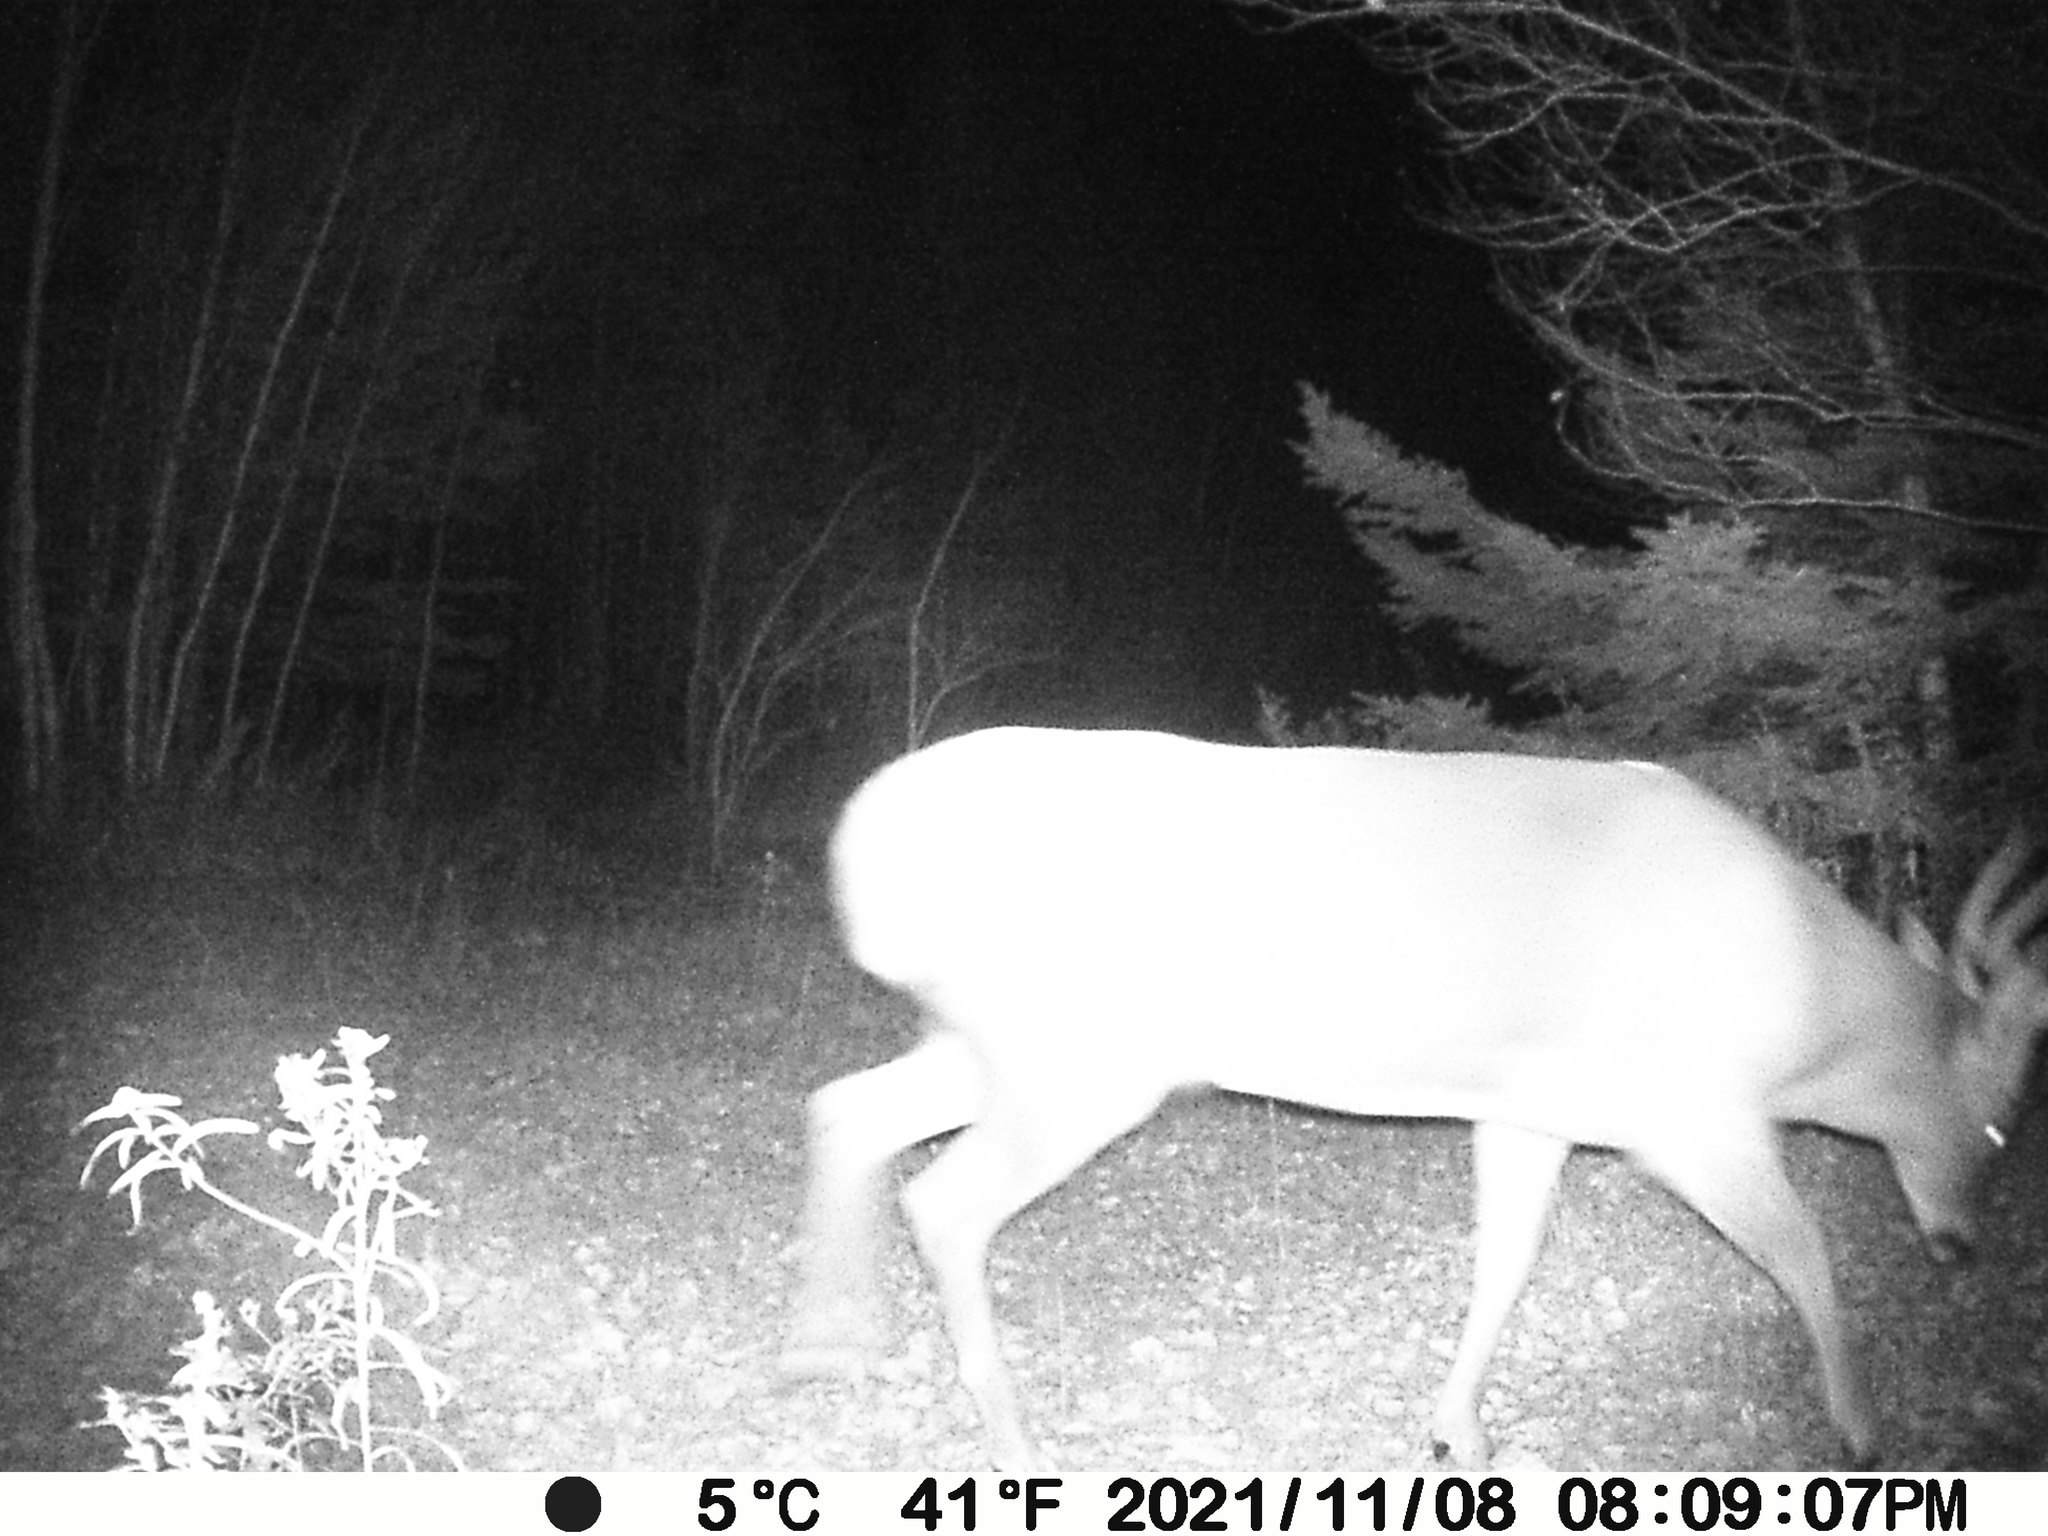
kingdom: Animalia
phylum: Chordata
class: Mammalia
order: Artiodactyla
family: Cervidae
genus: Odocoileus
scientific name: Odocoileus virginianus
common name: White-tailed deer
